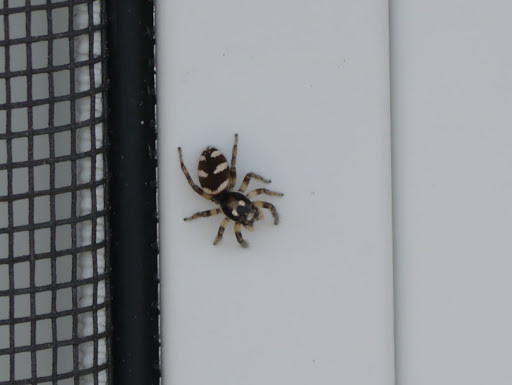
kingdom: Animalia
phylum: Arthropoda
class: Arachnida
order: Araneae
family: Salticidae
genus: Salticus
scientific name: Salticus scenicus
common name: Zebra jumper
